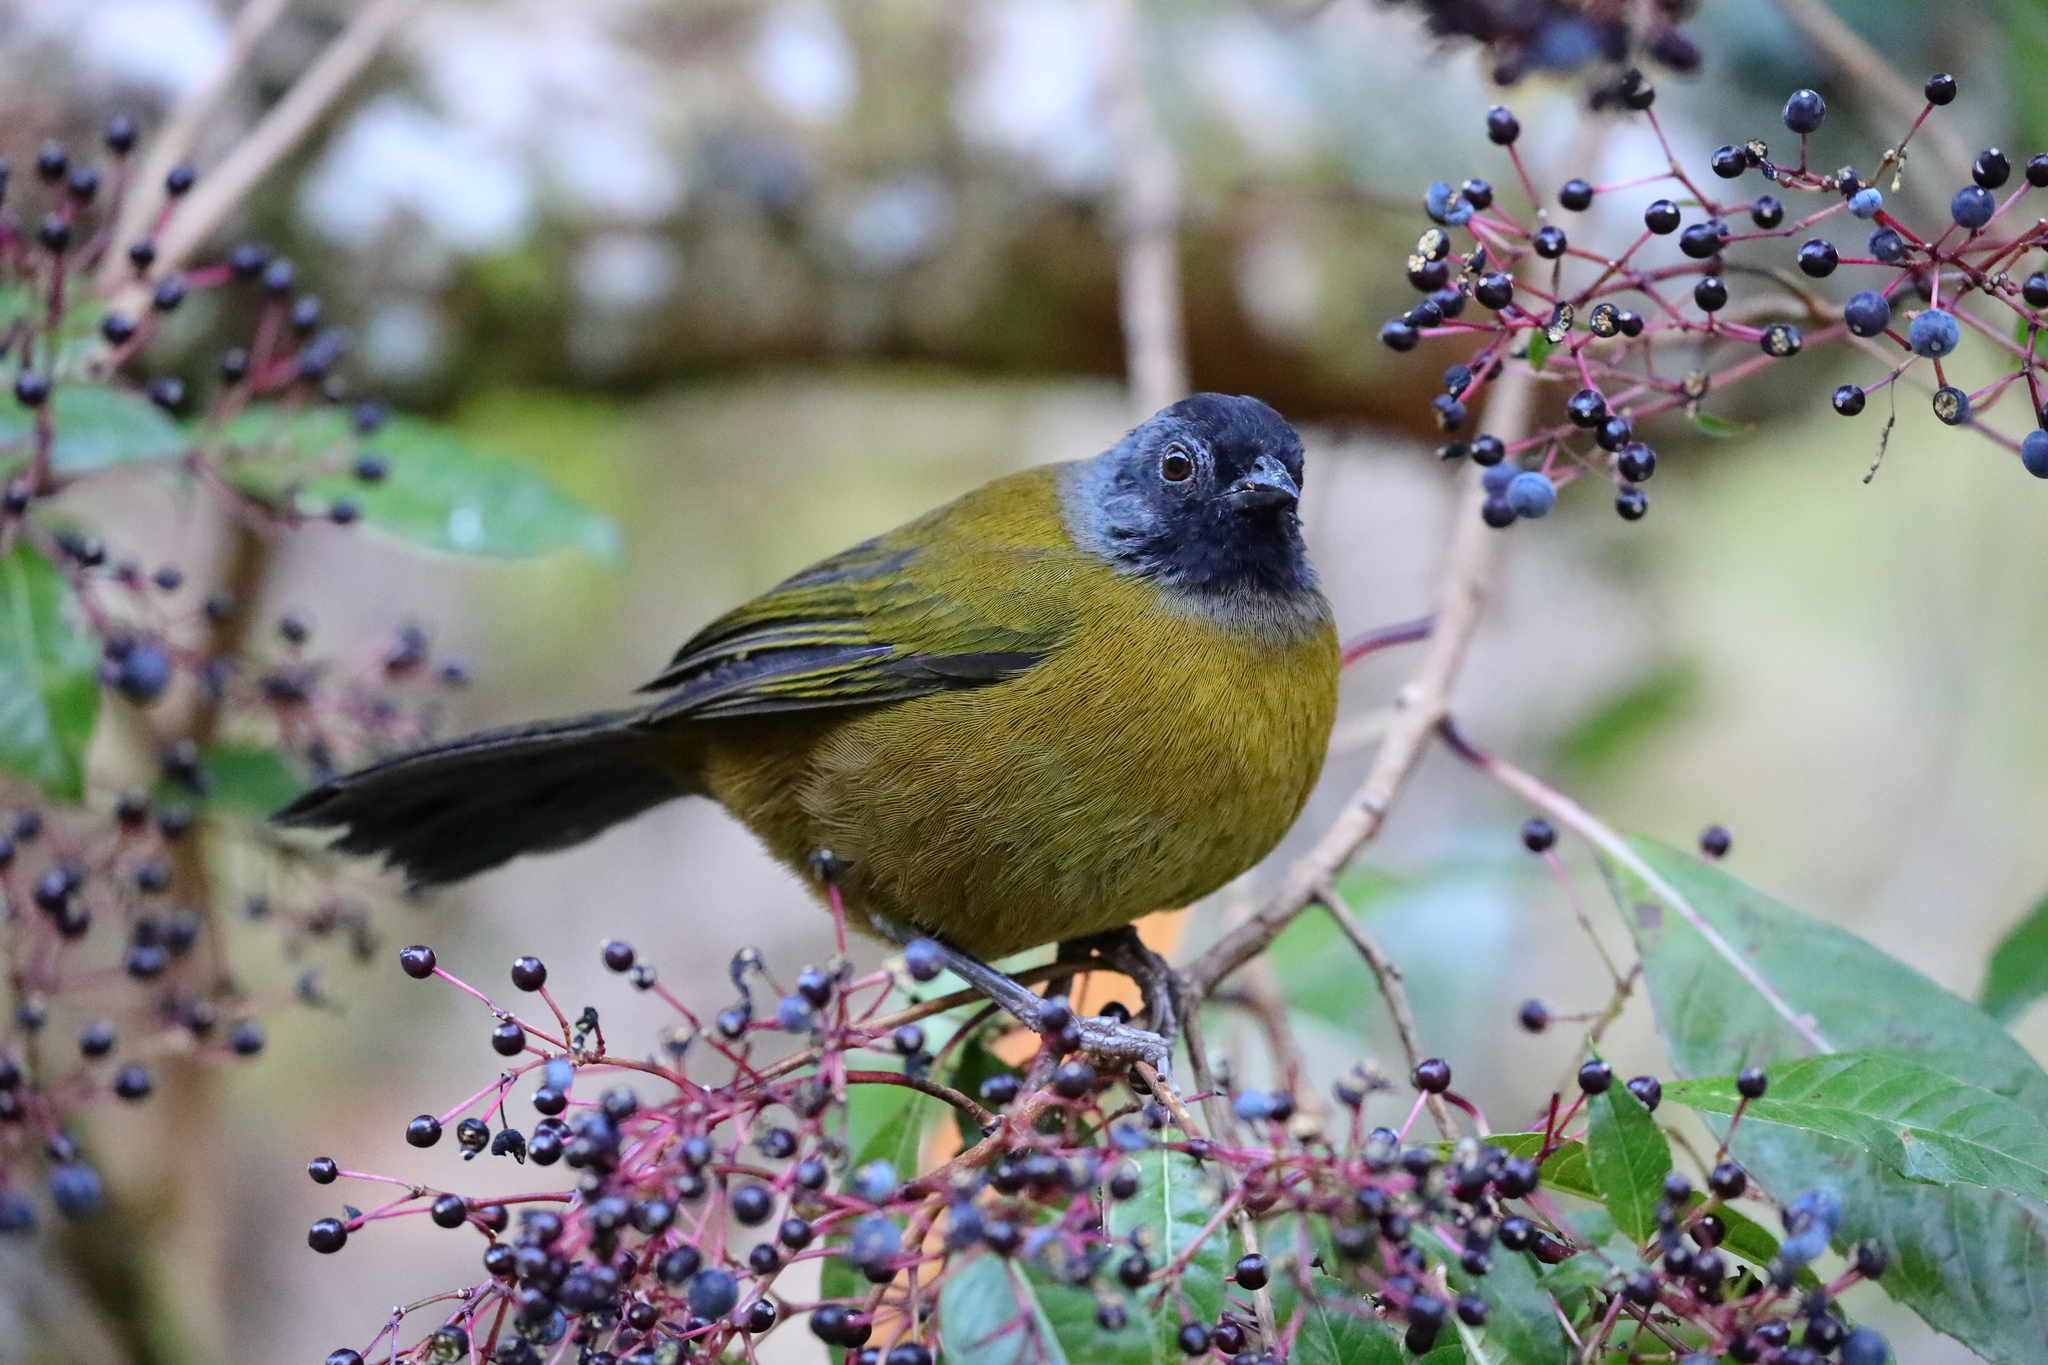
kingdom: Animalia
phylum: Chordata
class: Aves
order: Passeriformes
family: Passerellidae
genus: Pezopetes
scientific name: Pezopetes capitalis
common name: Large-footed finch
